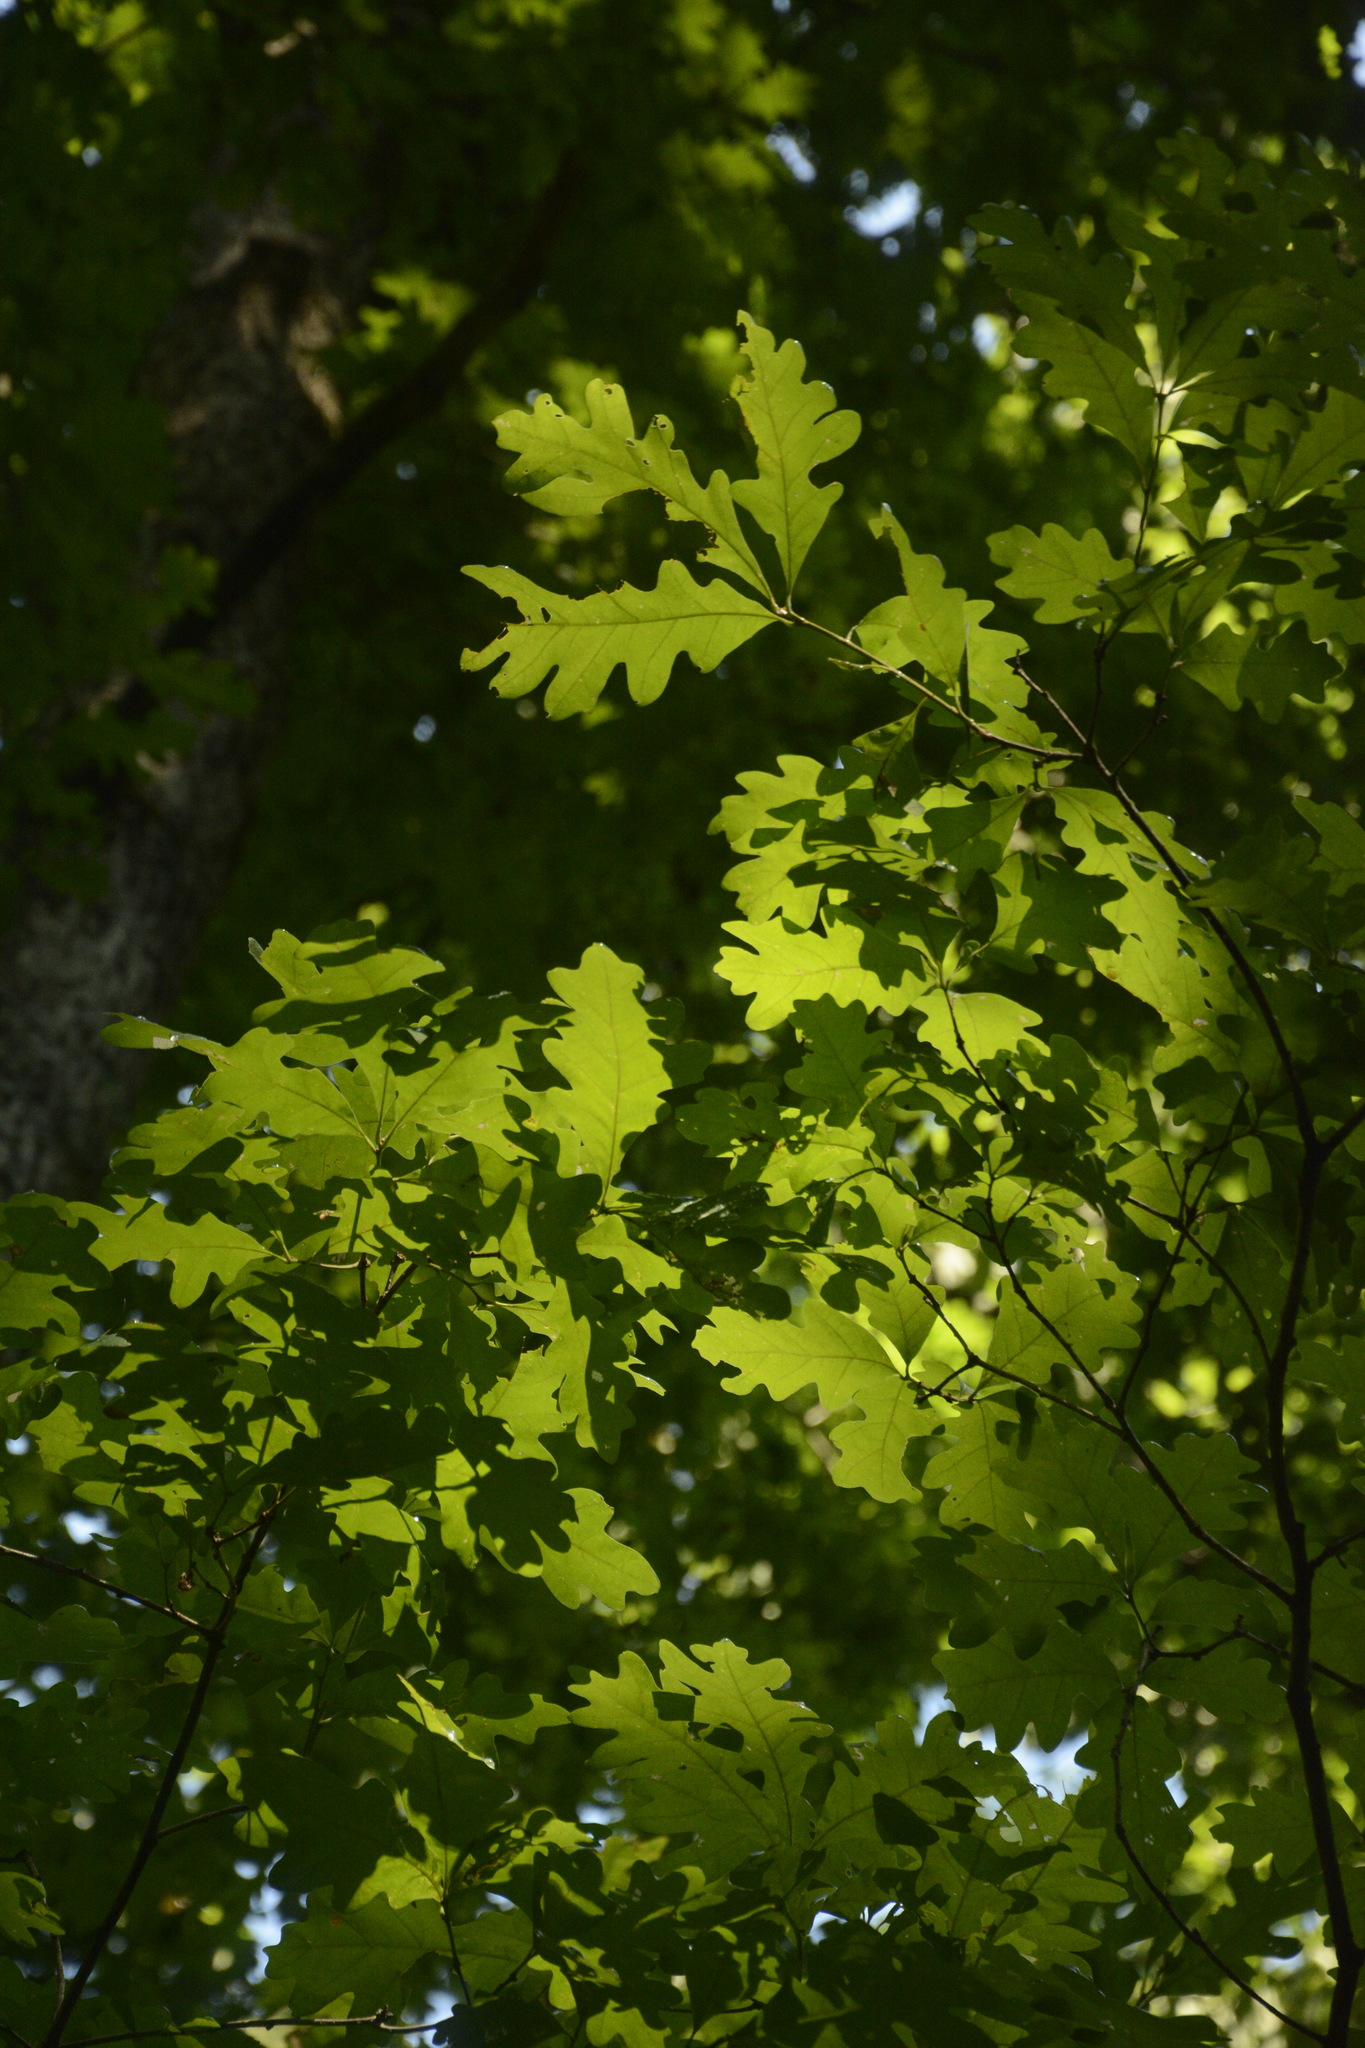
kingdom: Plantae
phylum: Tracheophyta
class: Magnoliopsida
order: Fagales
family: Fagaceae
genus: Quercus
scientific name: Quercus alba
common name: White oak
